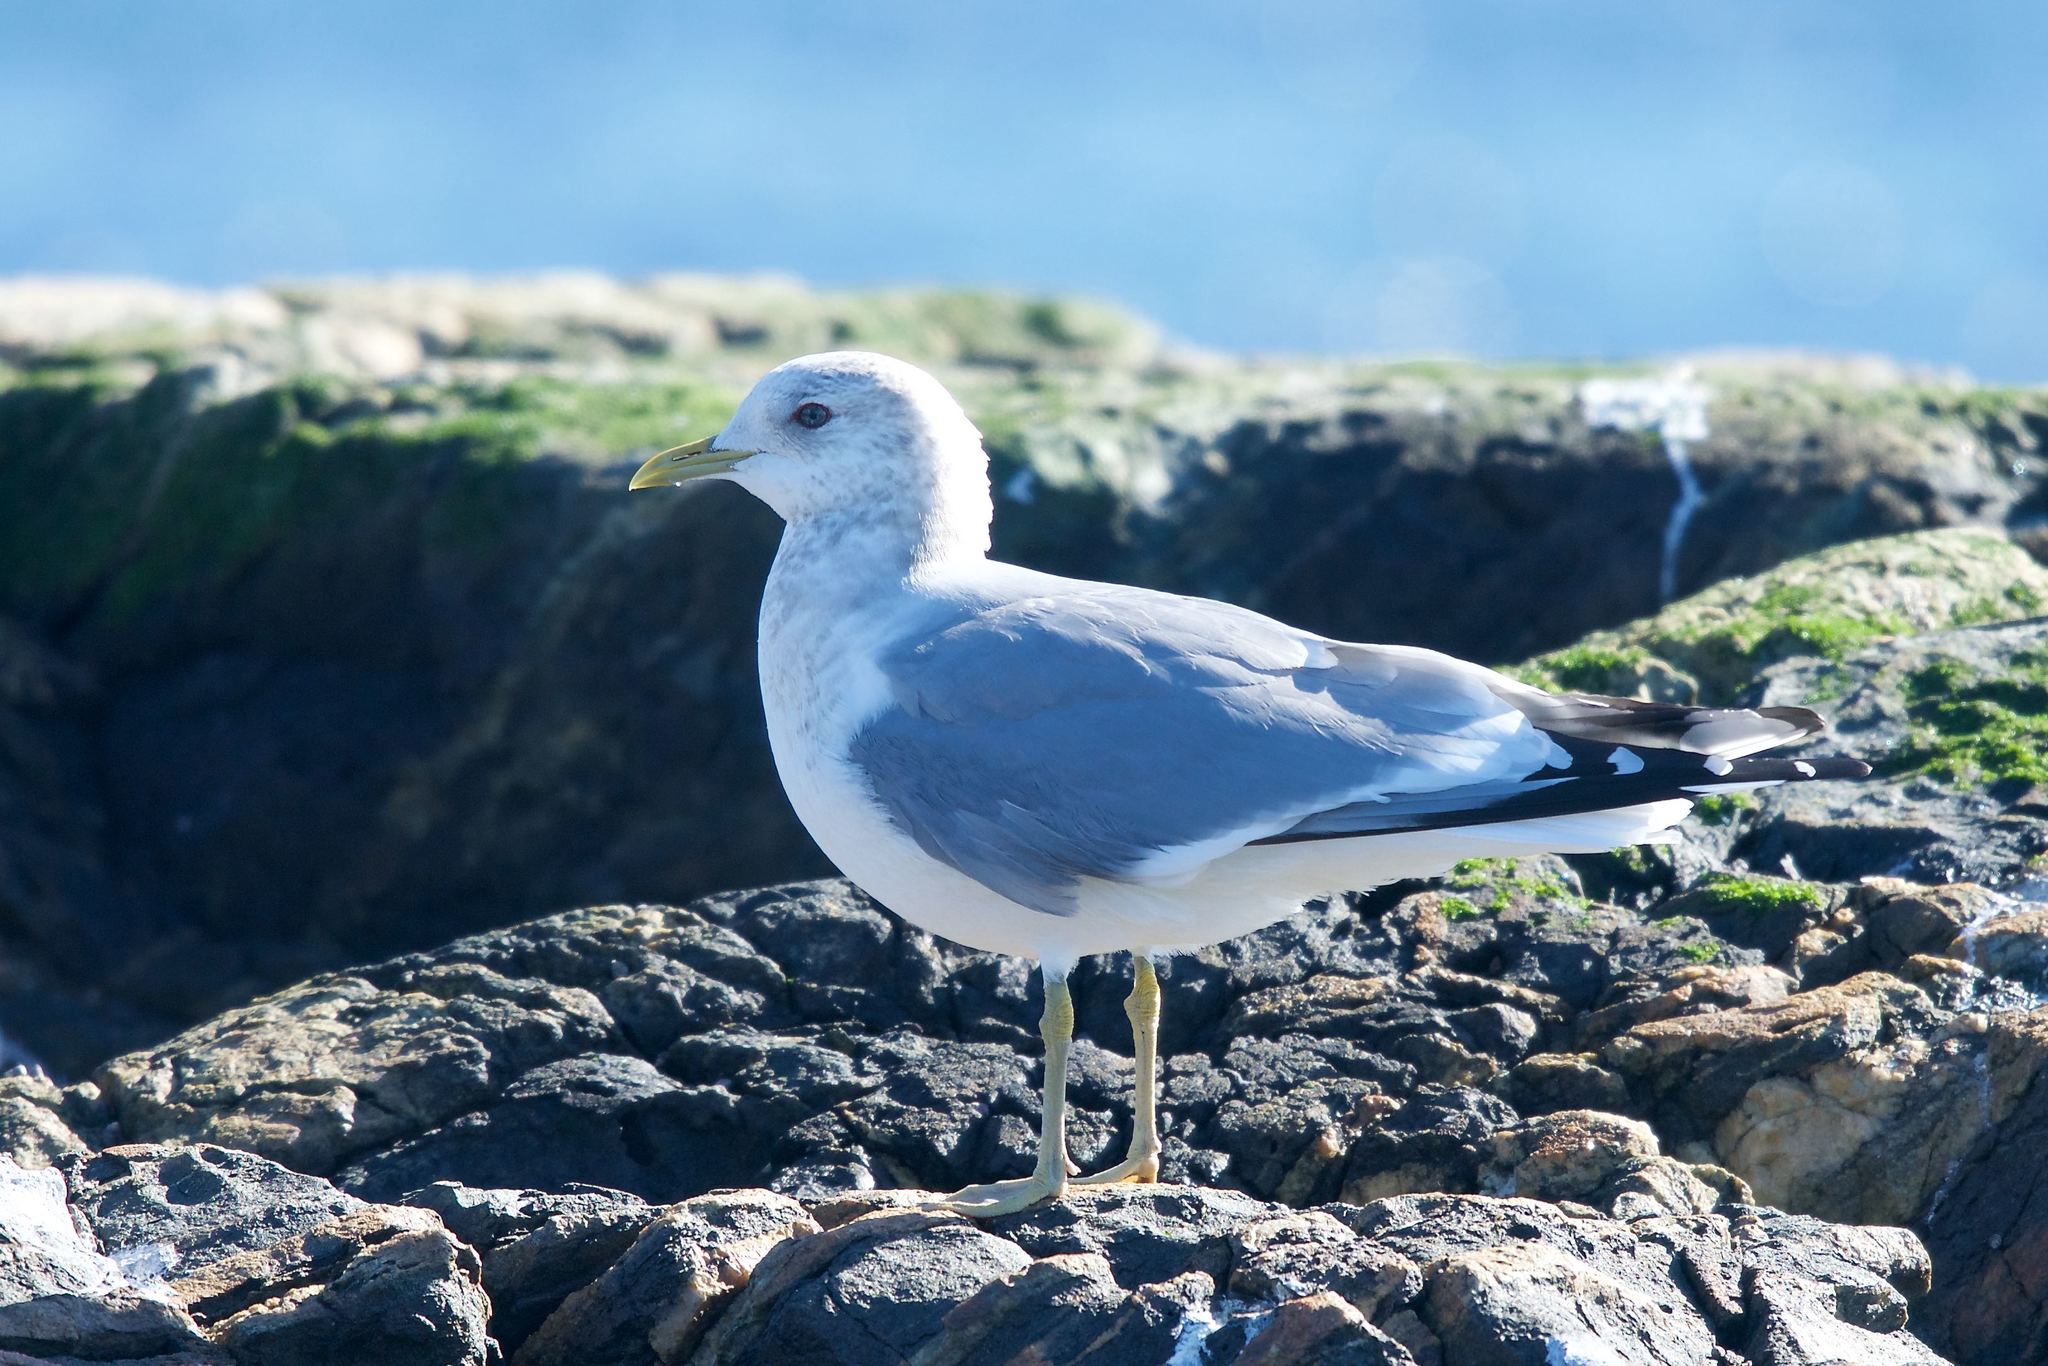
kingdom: Animalia
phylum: Chordata
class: Aves
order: Charadriiformes
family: Laridae
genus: Larus
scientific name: Larus brachyrhynchus
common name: Short-billed gull
